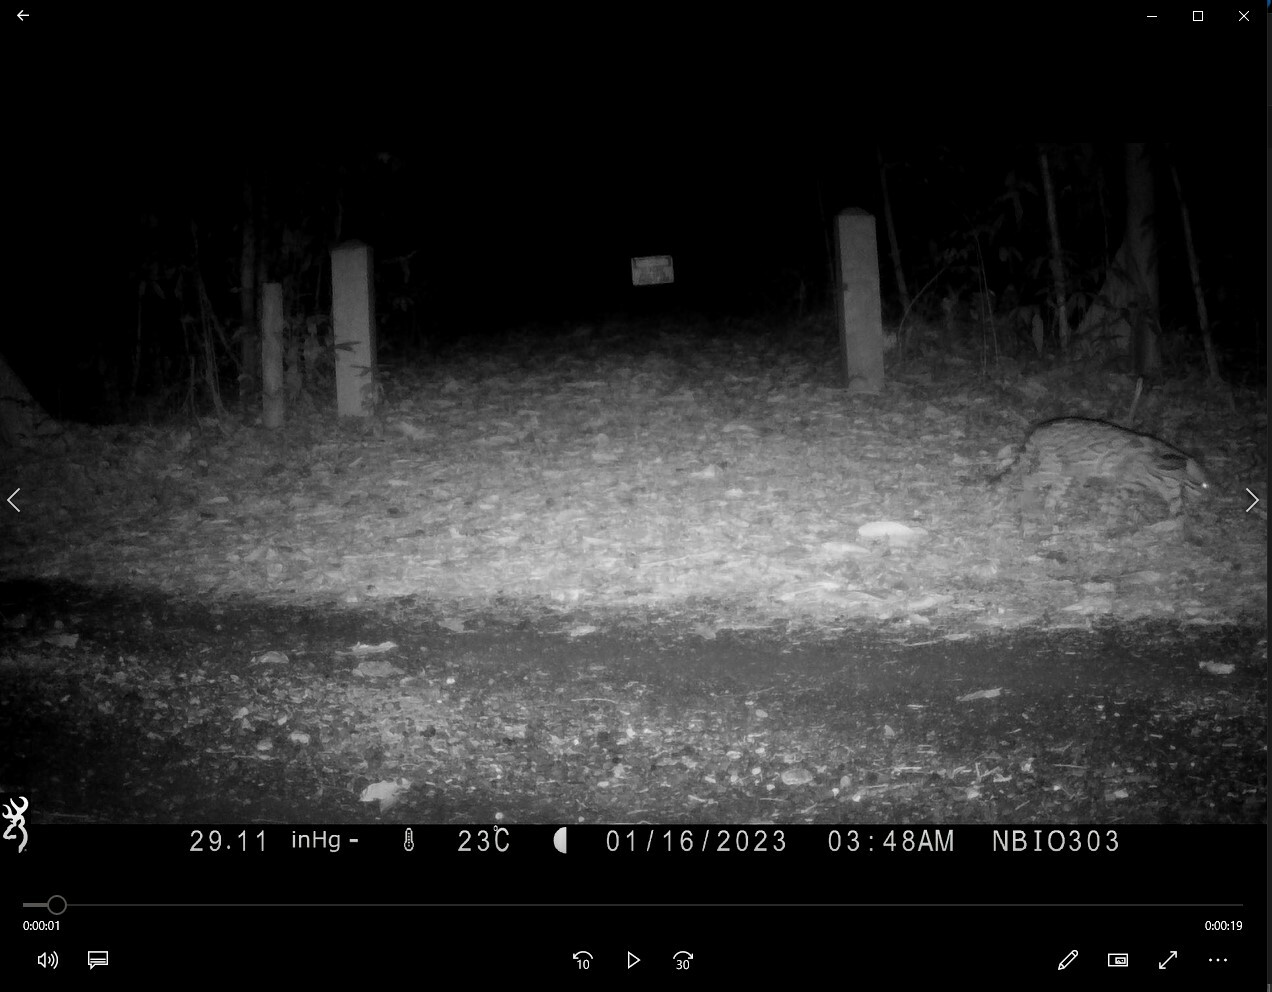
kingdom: Animalia
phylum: Chordata
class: Mammalia
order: Carnivora
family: Felidae
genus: Leopardus
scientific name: Leopardus pardalis
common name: Ocelot
